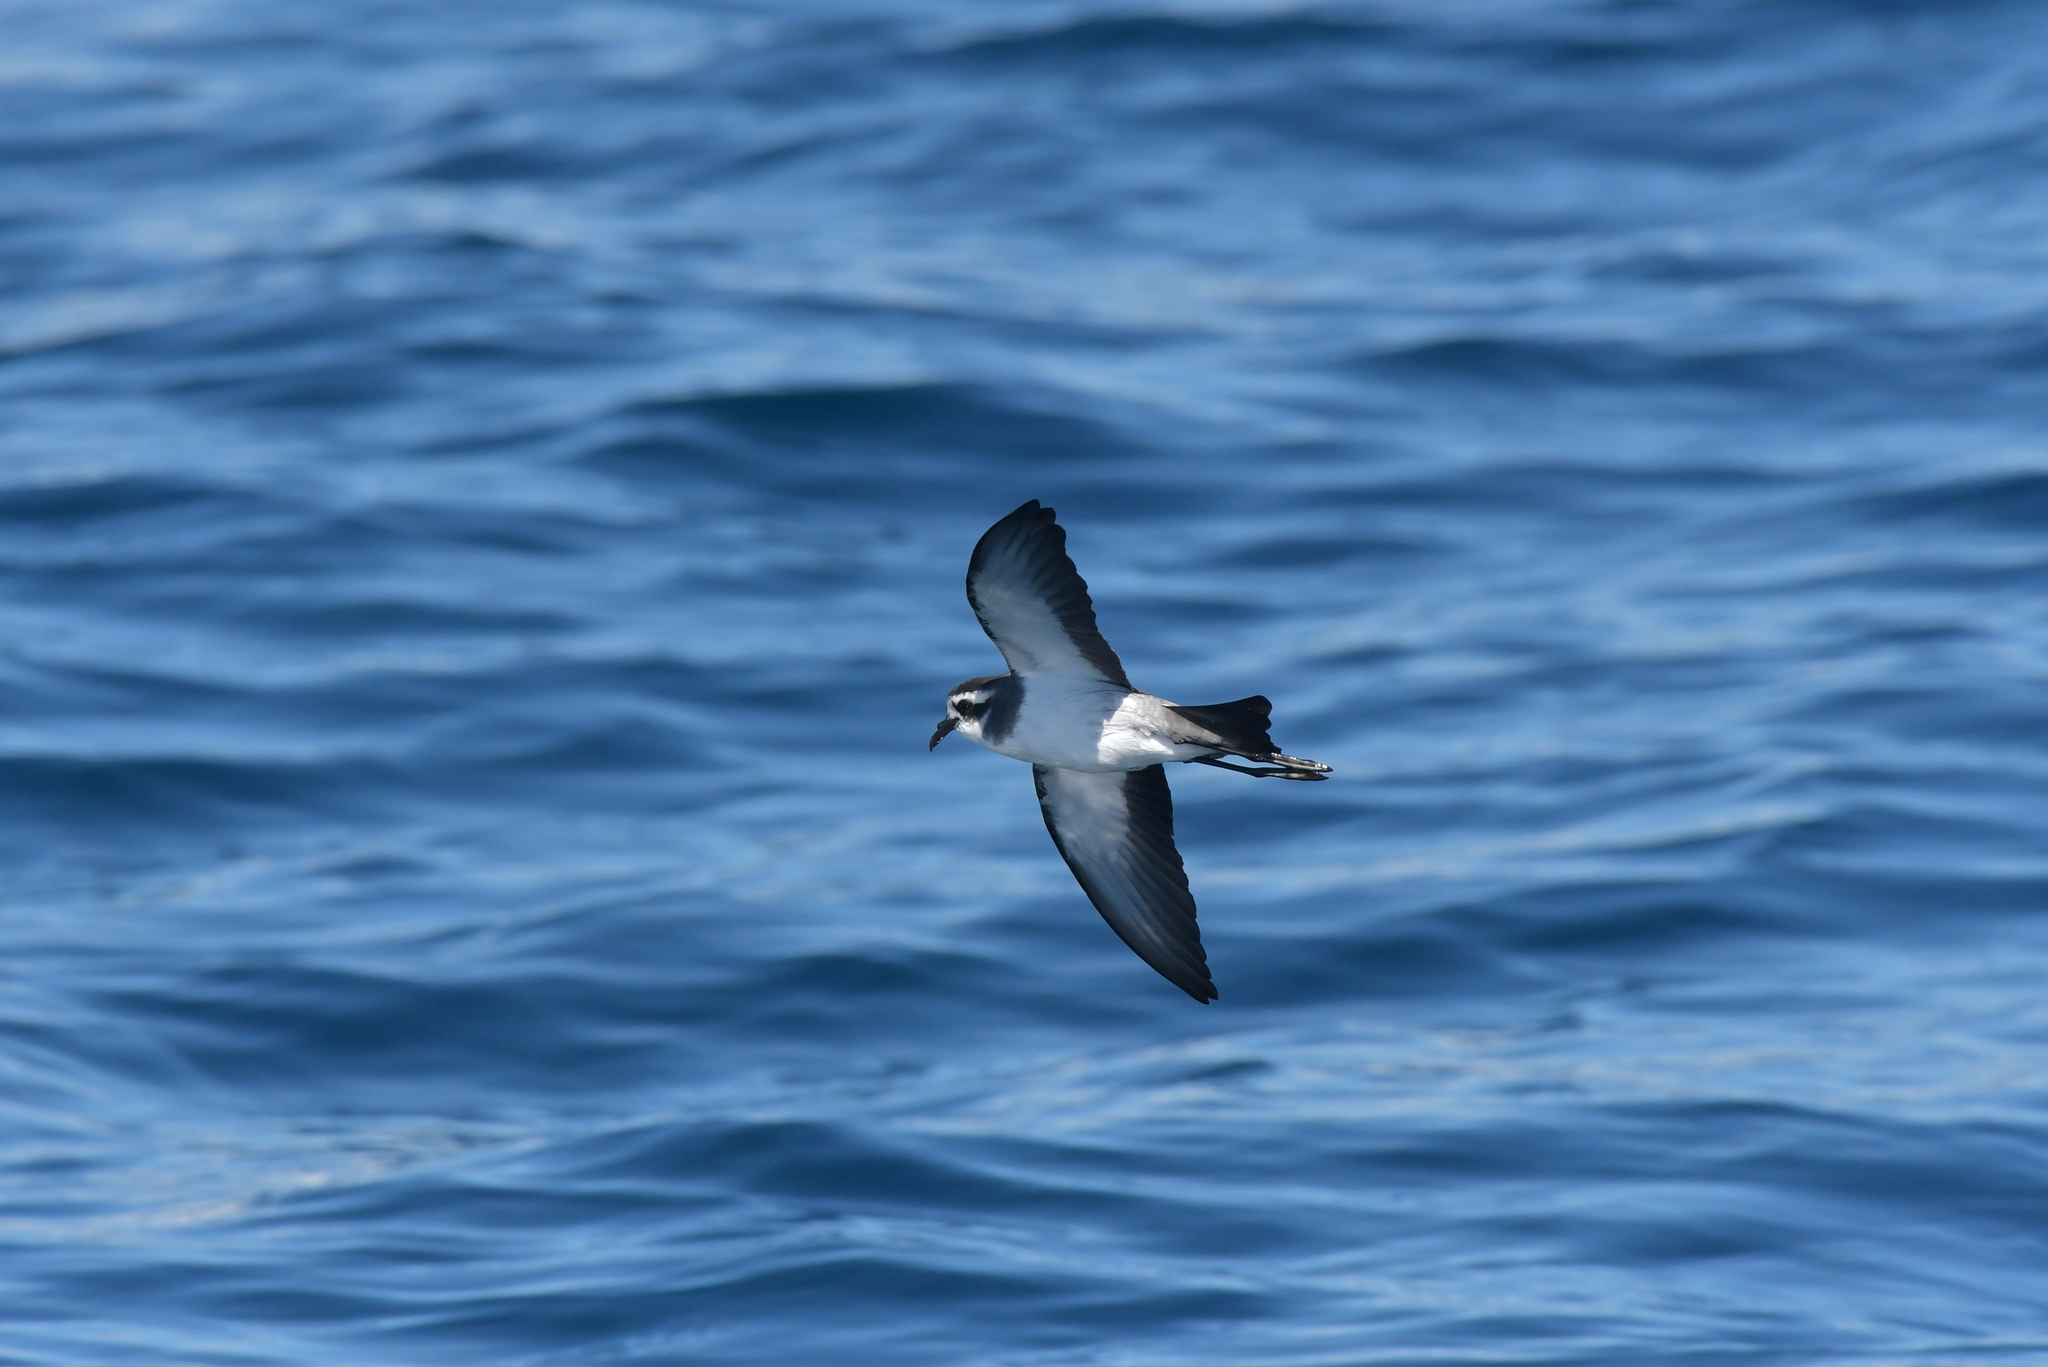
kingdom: Animalia
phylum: Chordata
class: Aves
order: Procellariiformes
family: Hydrobatidae
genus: Pelagodroma
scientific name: Pelagodroma marina
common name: White-faced storm-petrel
